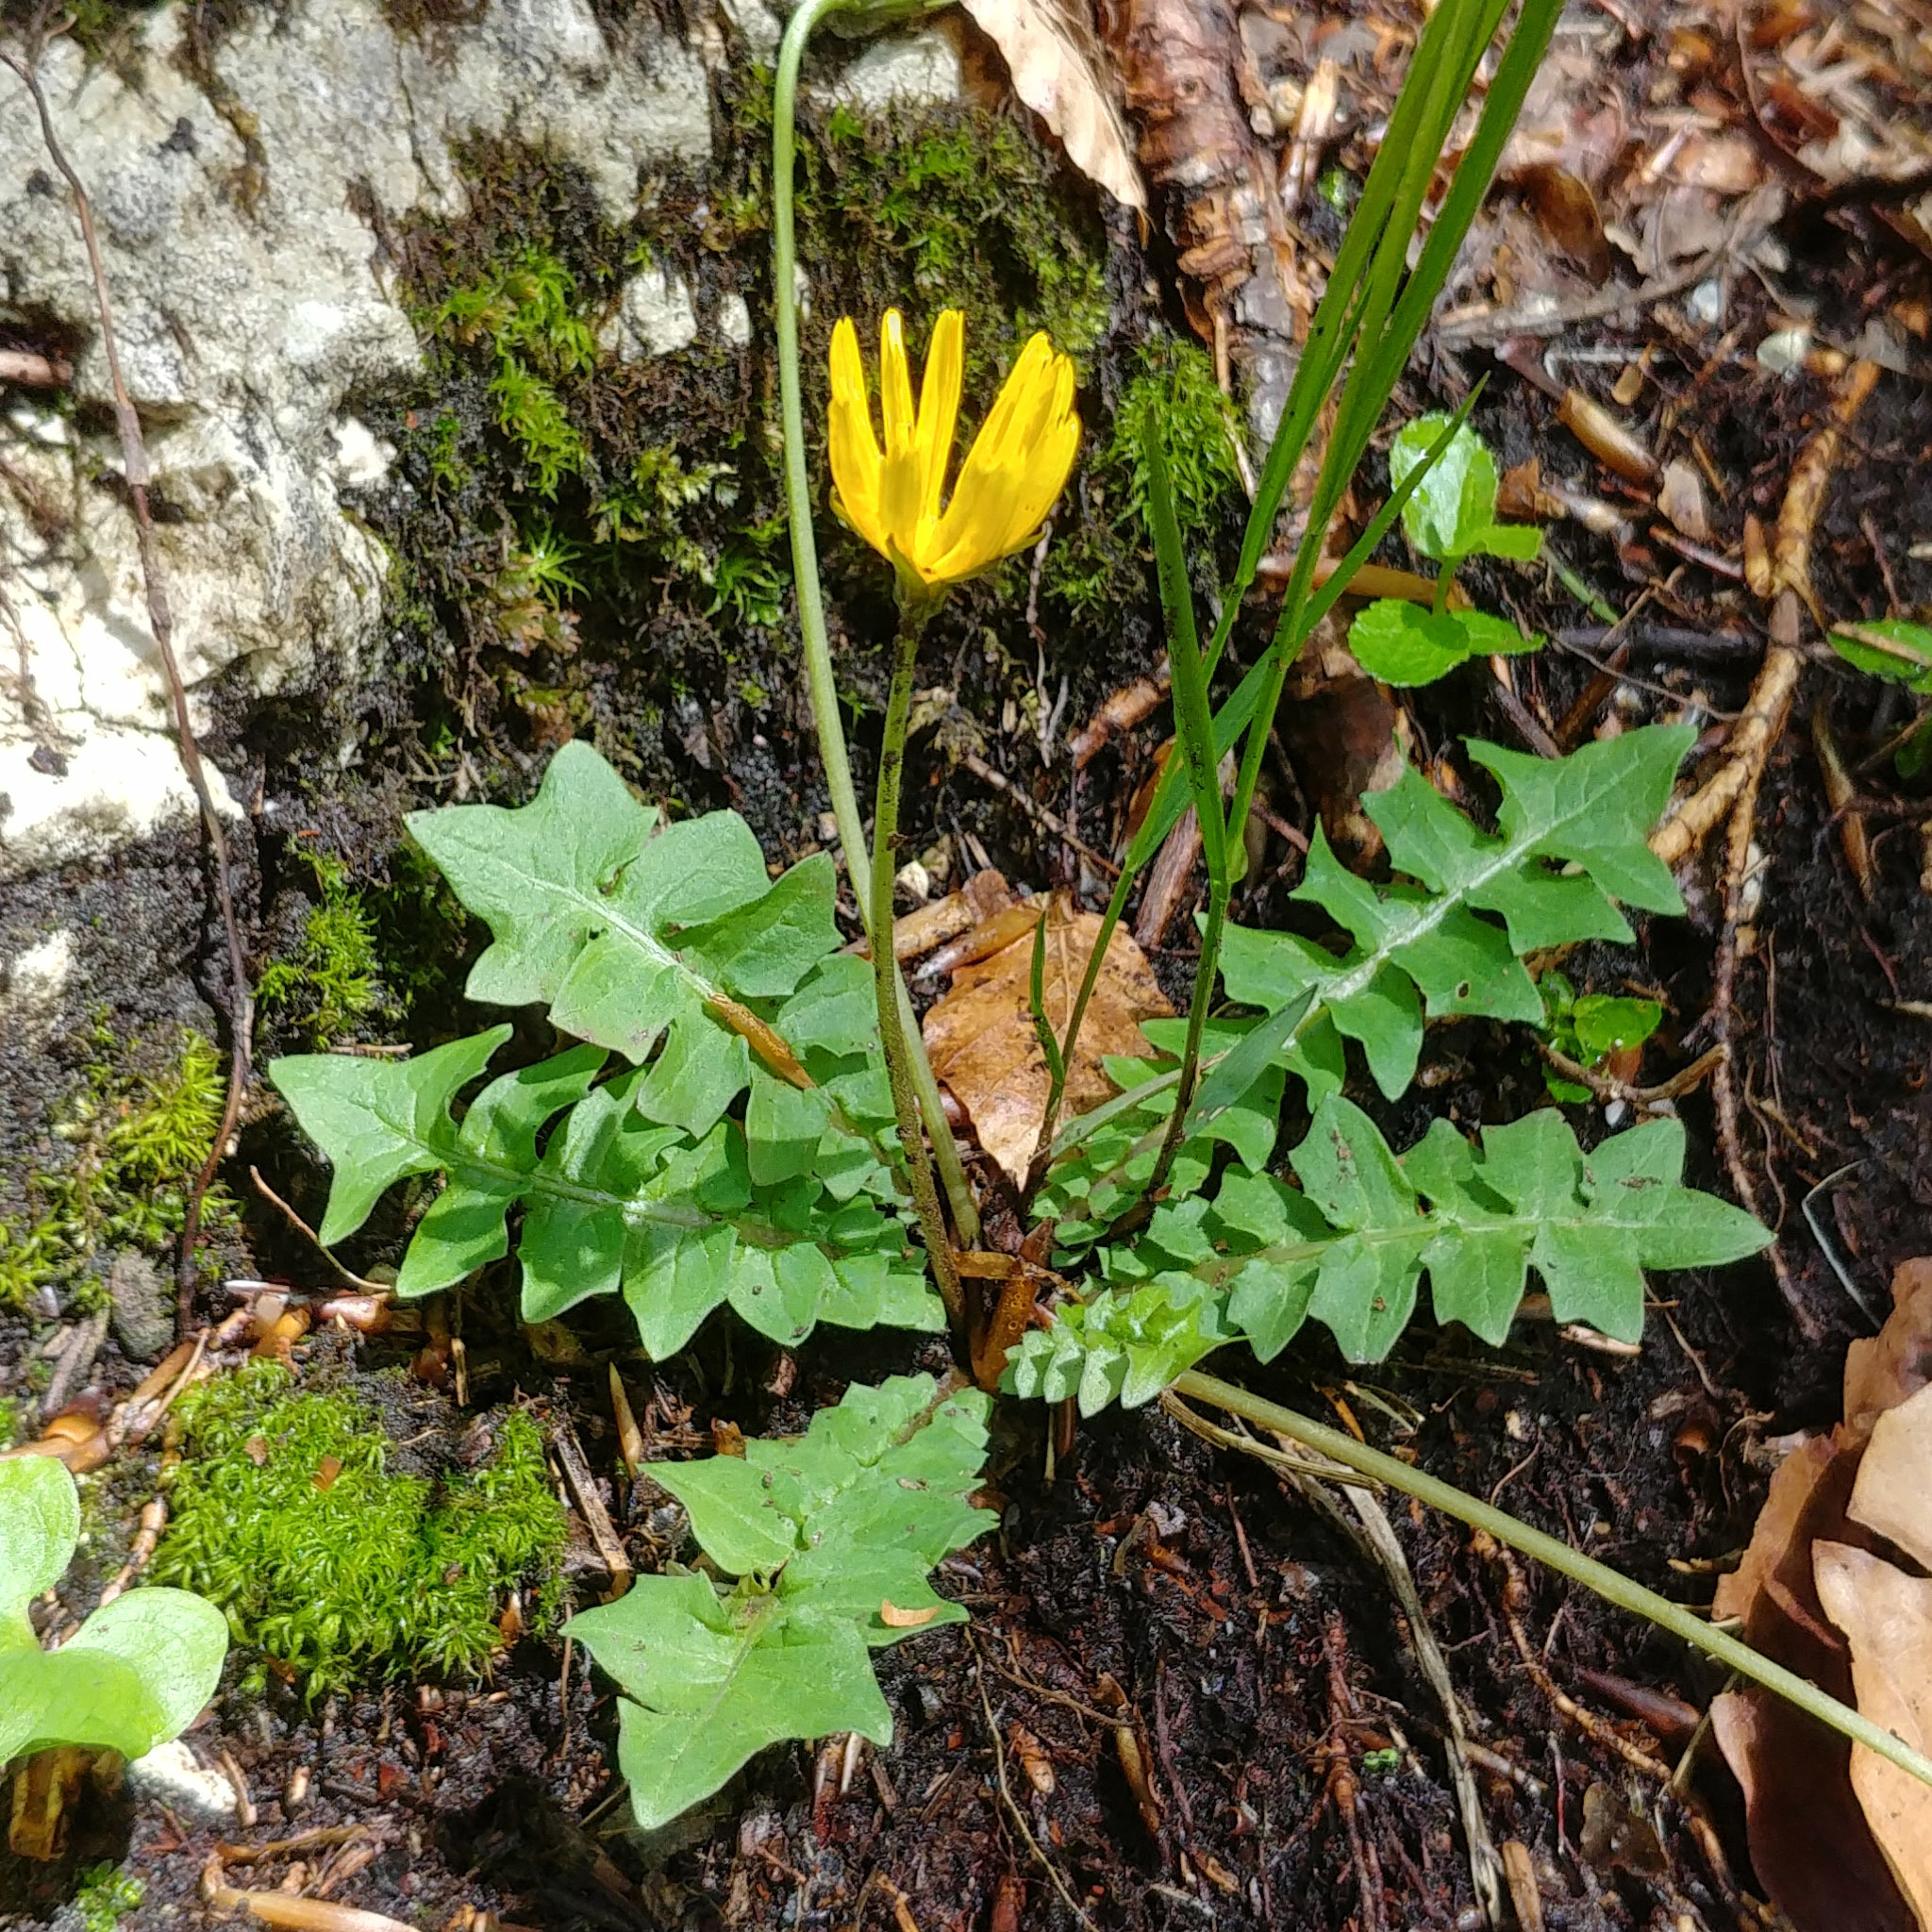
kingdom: Plantae
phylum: Tracheophyta
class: Magnoliopsida
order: Asterales
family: Asteraceae
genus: Aposeris
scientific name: Aposeris foetida
